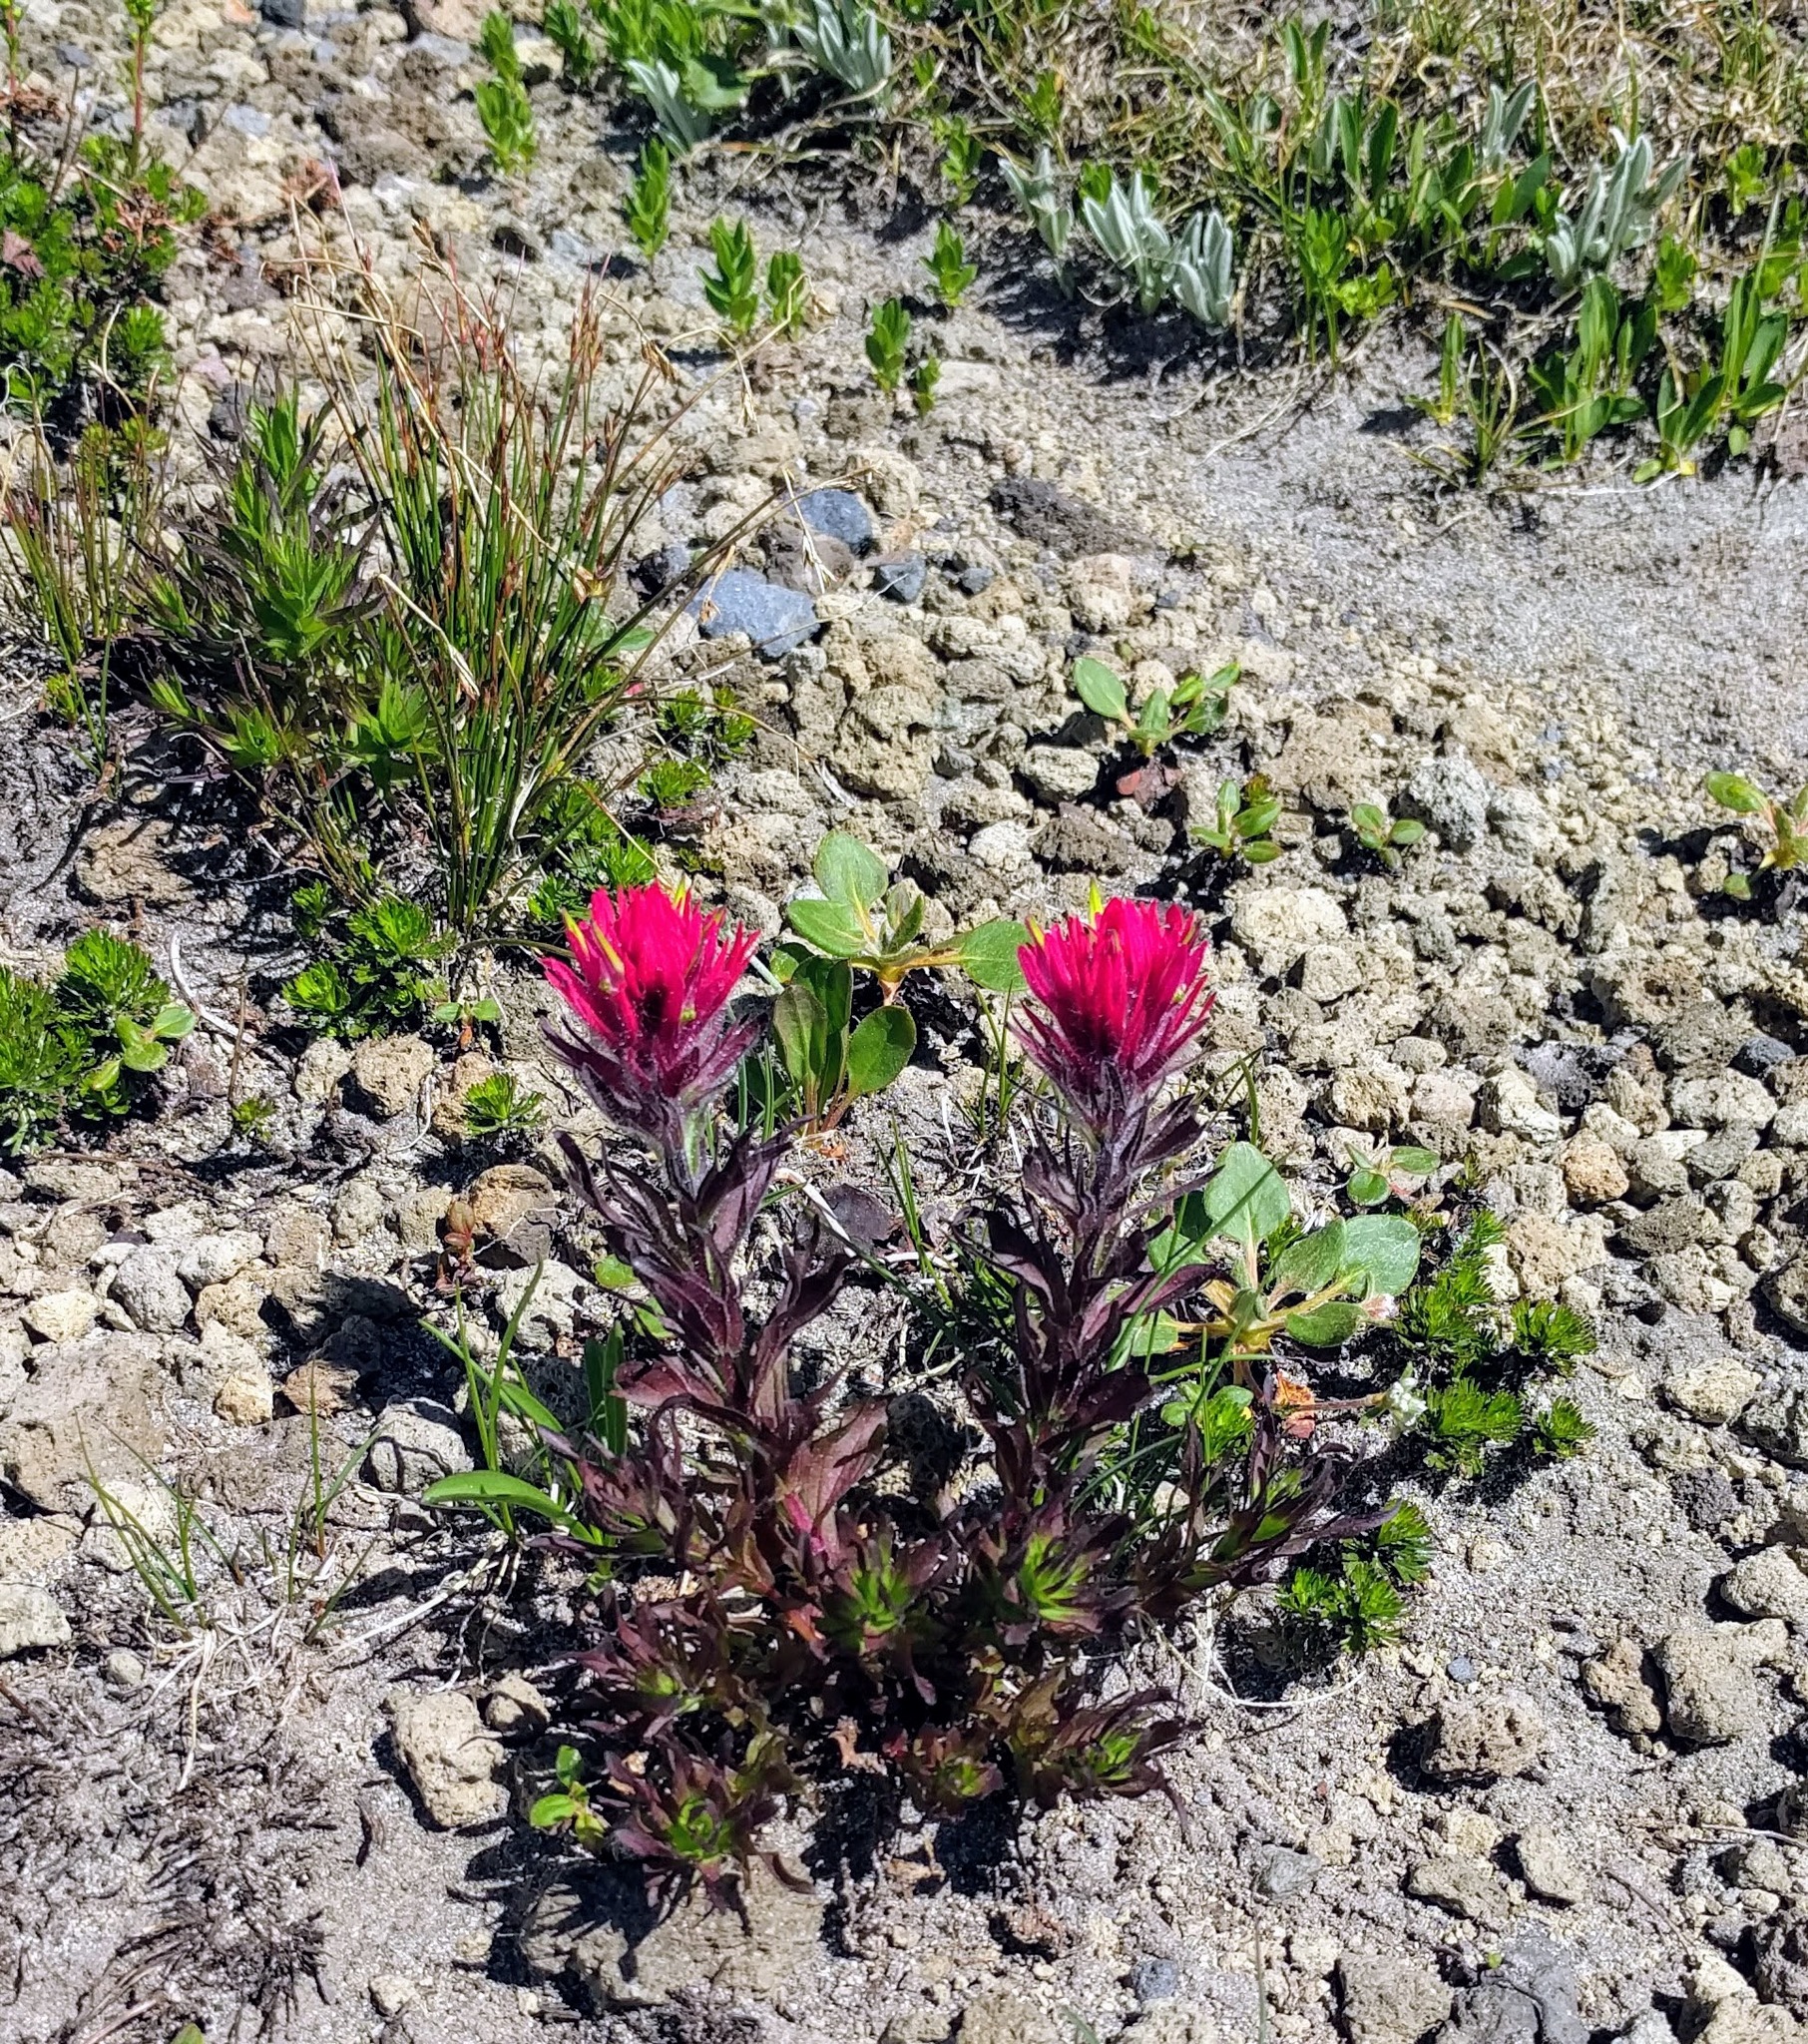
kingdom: Plantae
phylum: Tracheophyta
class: Magnoliopsida
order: Lamiales
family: Orobanchaceae
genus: Castilleja
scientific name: Castilleja parviflora
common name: Mountain paintbrush
